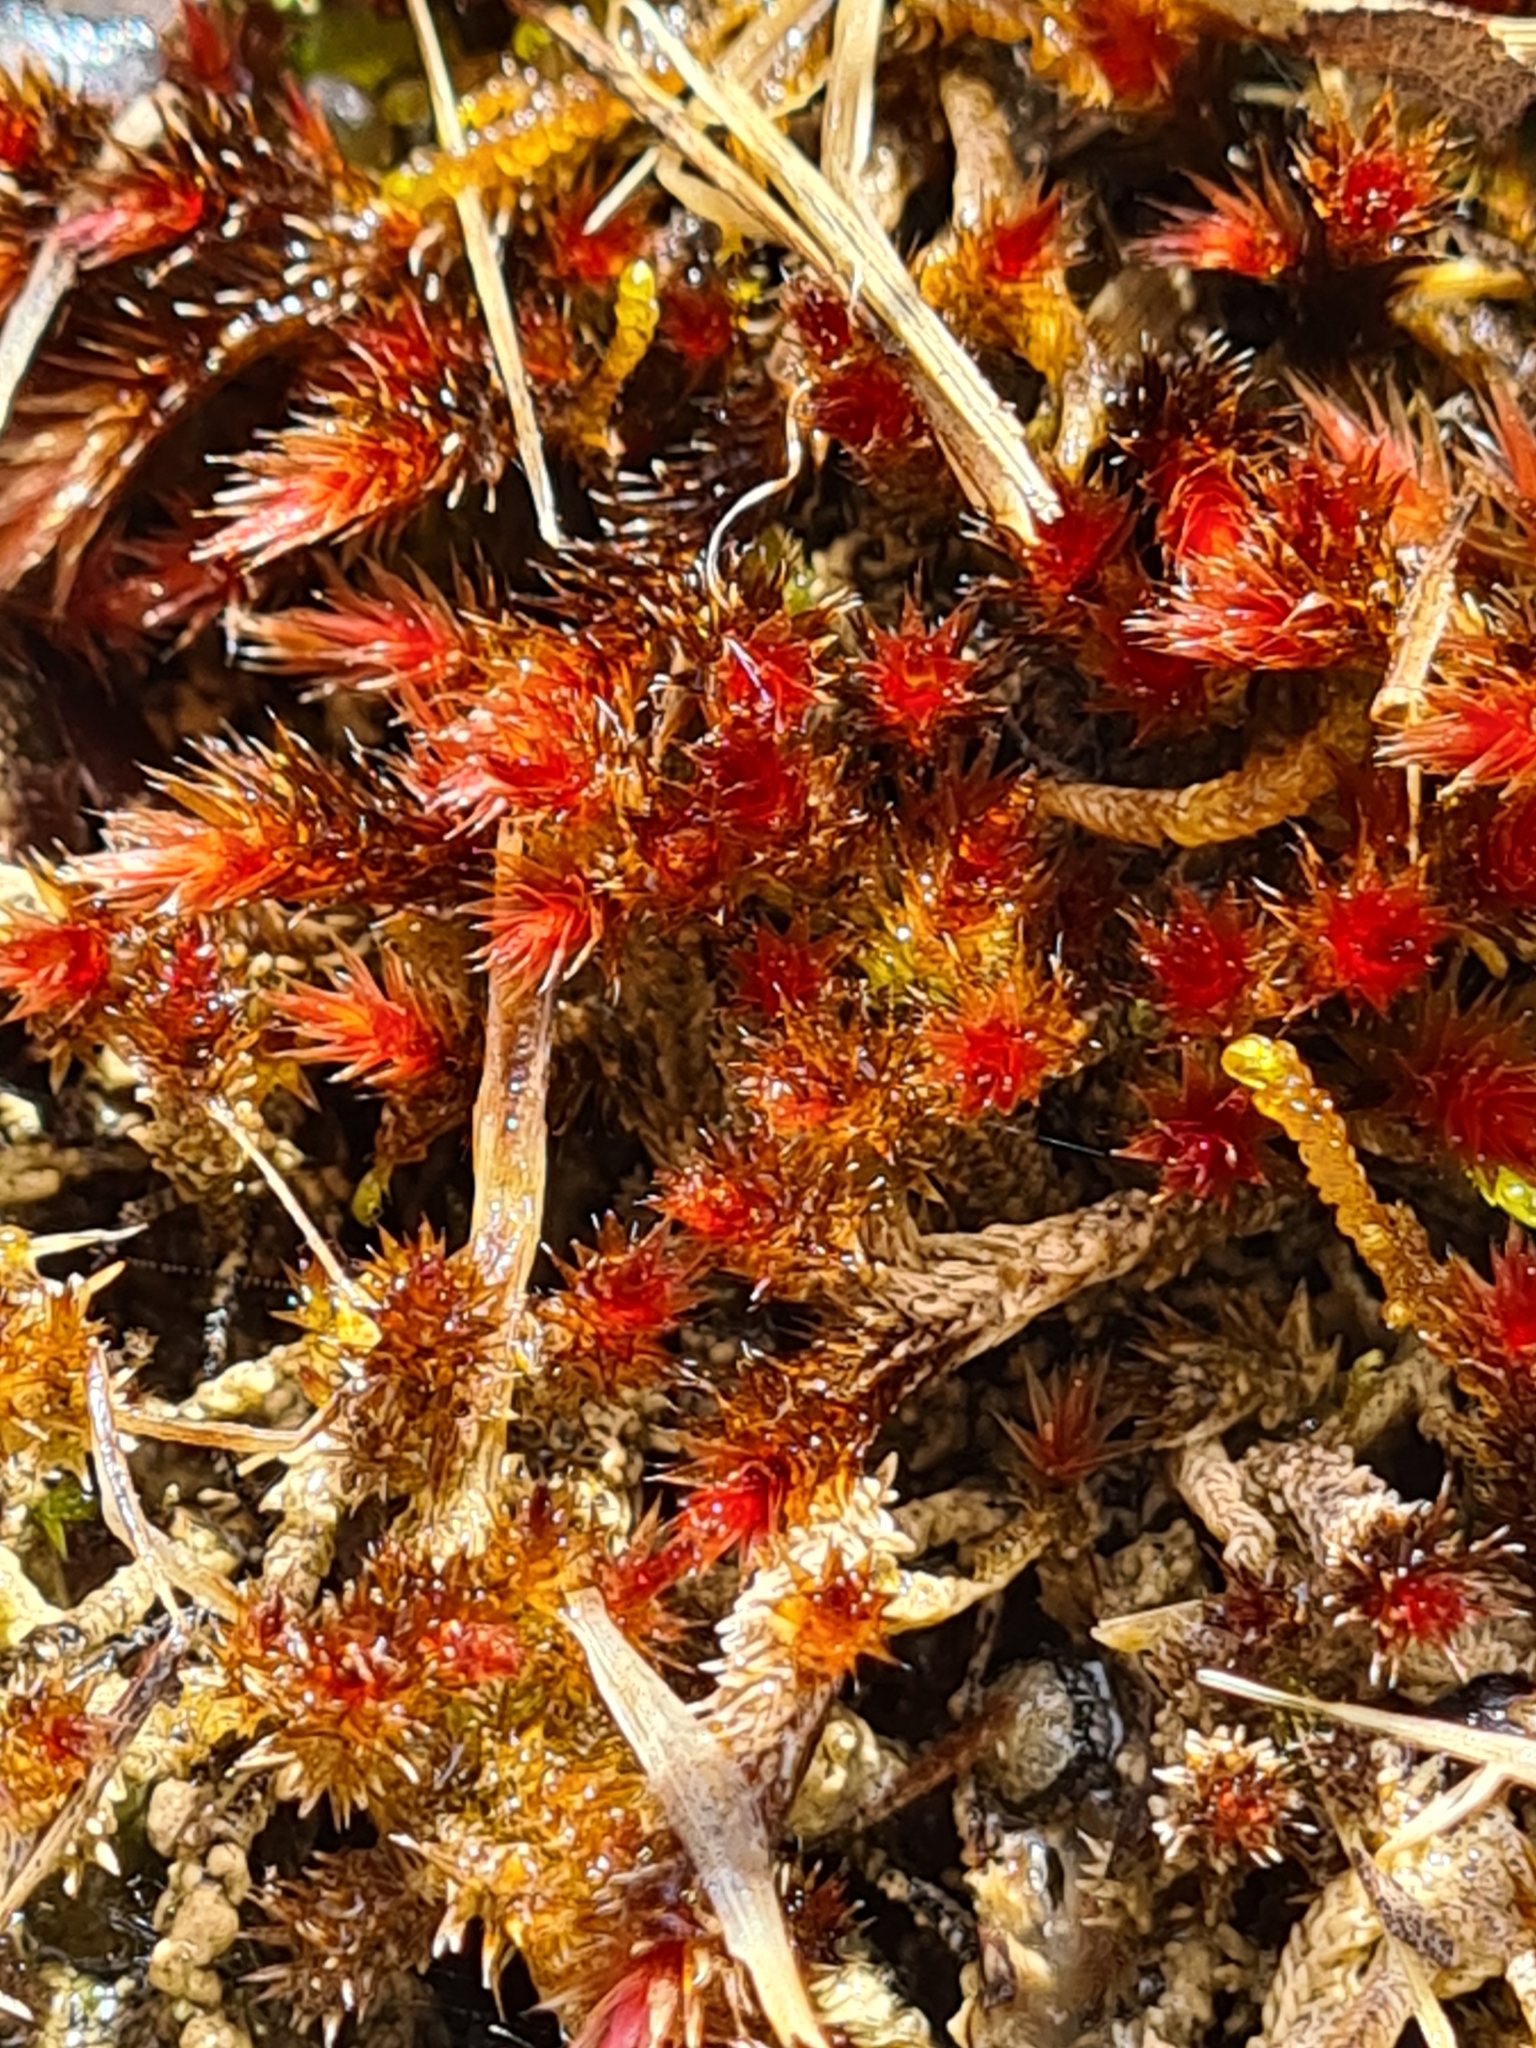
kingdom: Plantae
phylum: Bryophyta
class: Bryopsida
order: Hypnales
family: Plagiotheciaceae
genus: Orthothecium
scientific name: Orthothecium rufescens
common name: Red leskea
